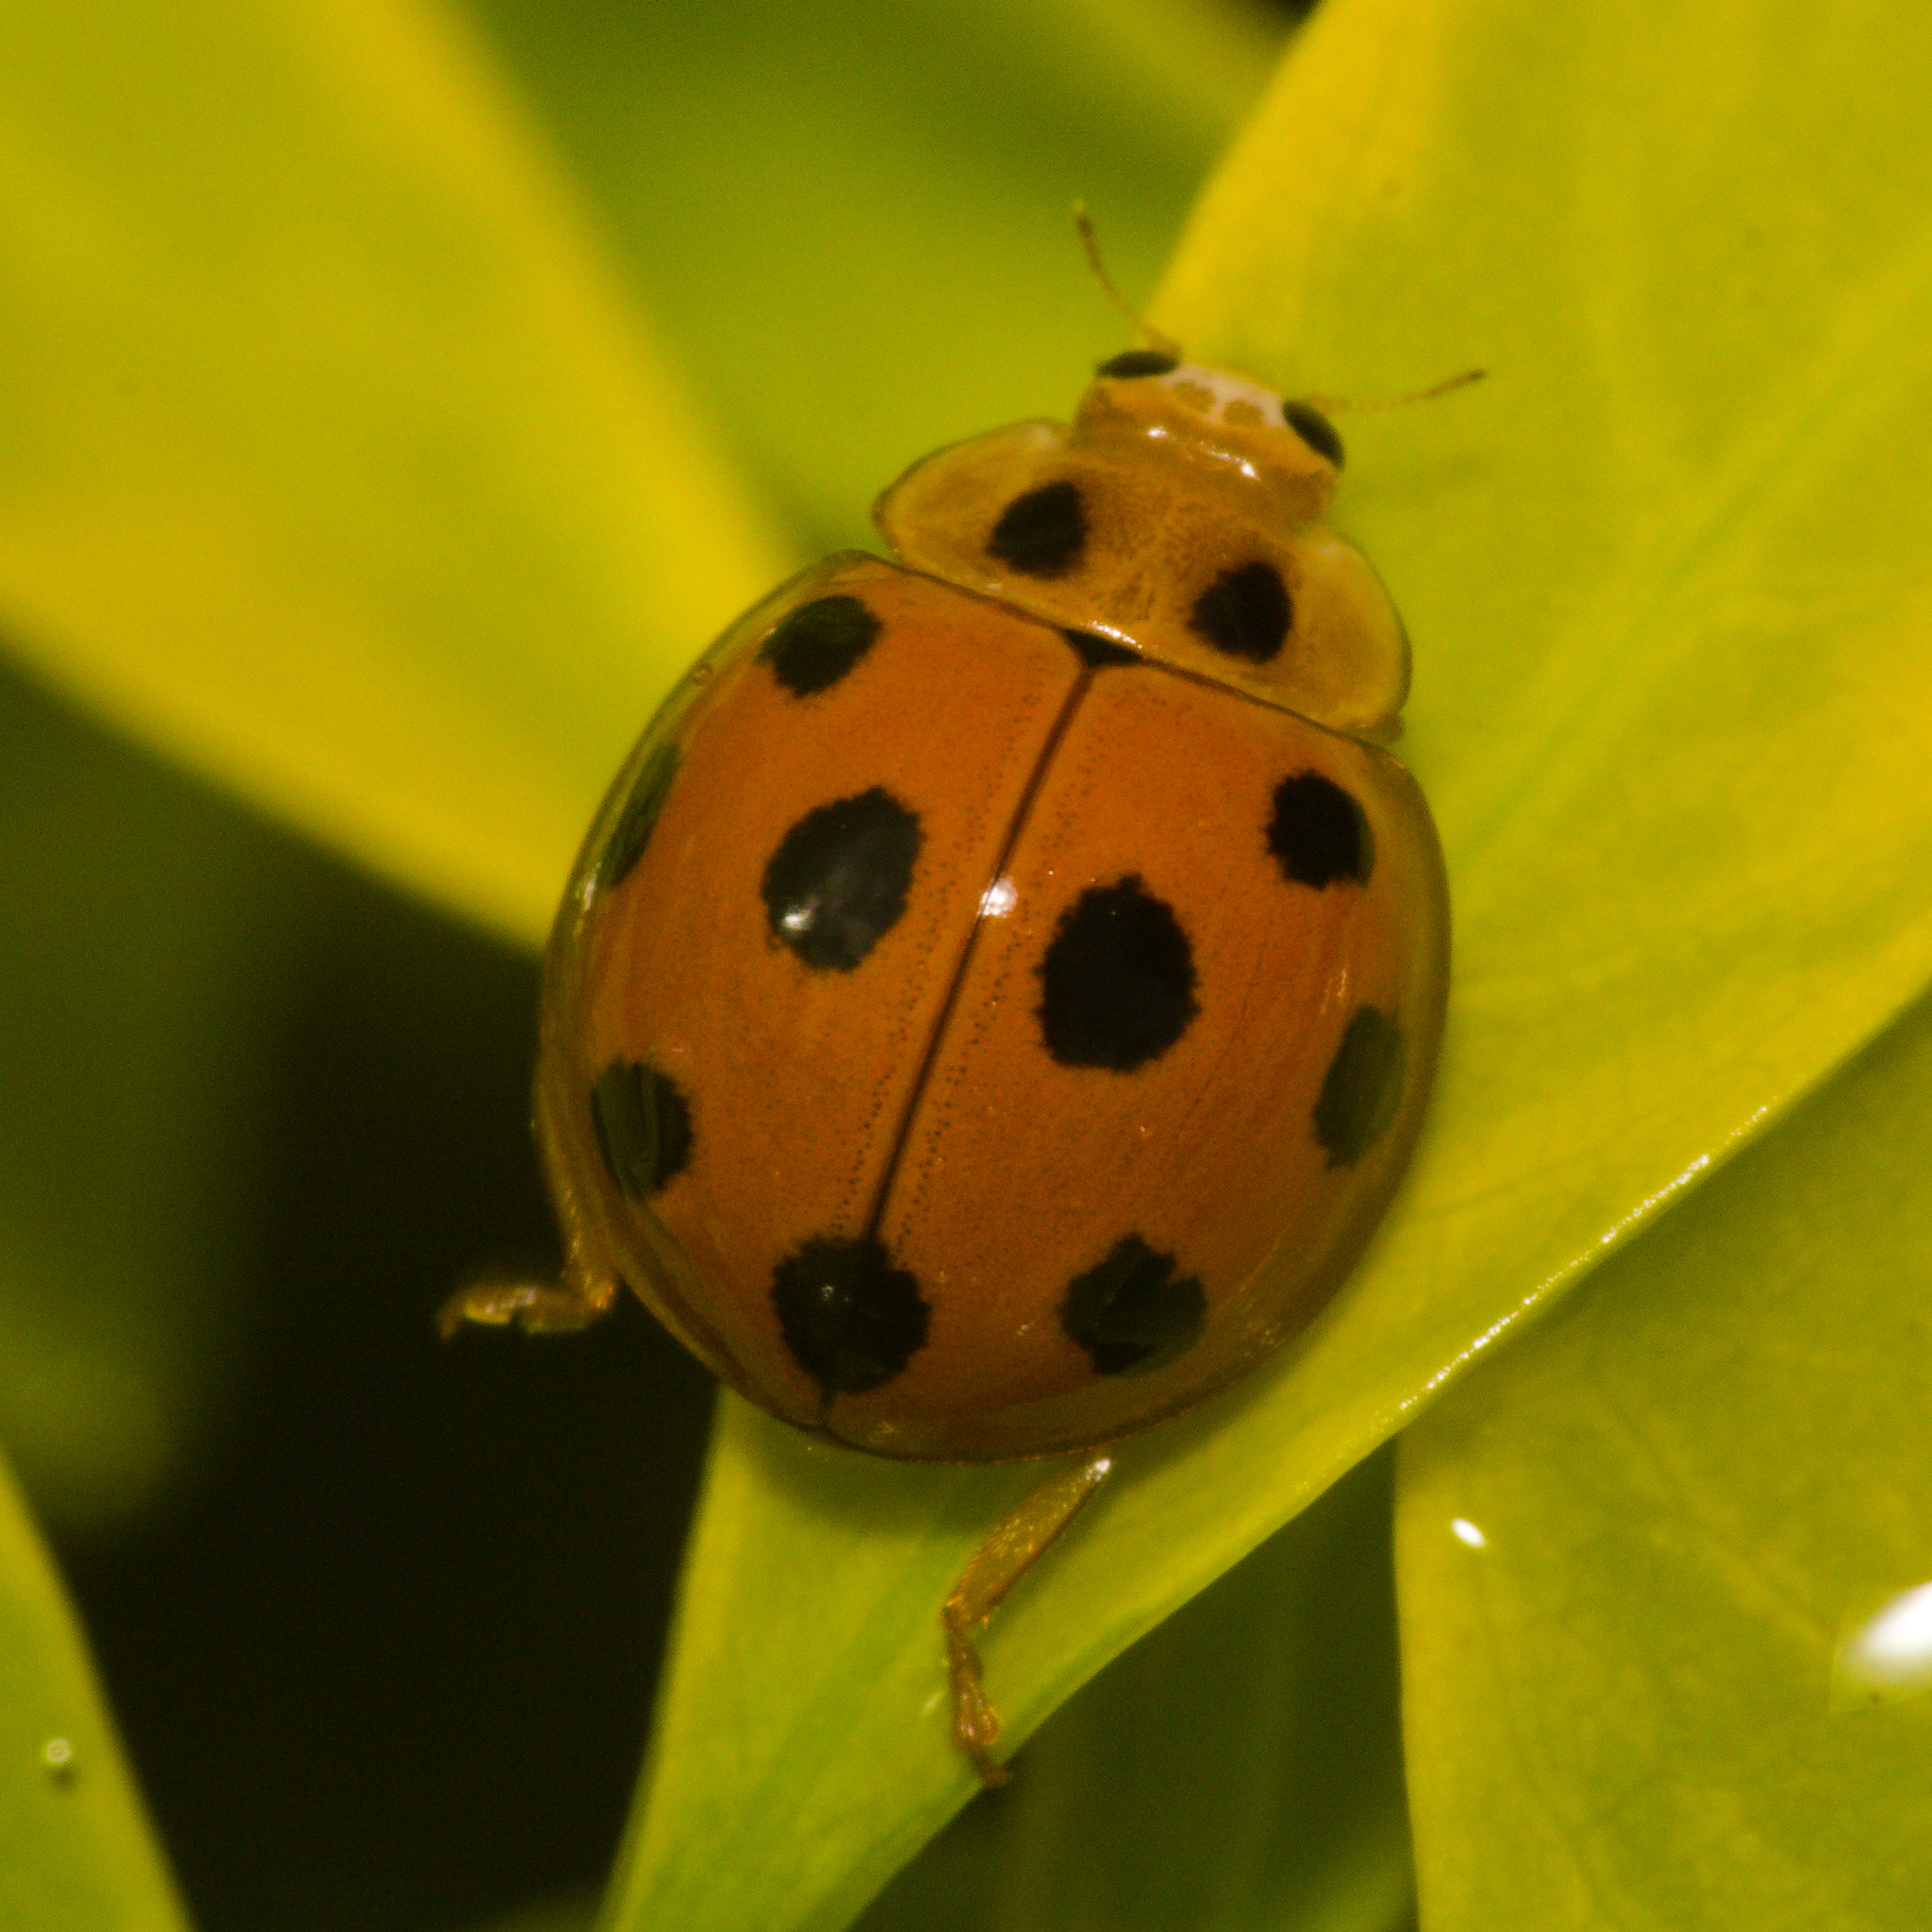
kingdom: Animalia
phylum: Arthropoda
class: Insecta
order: Coleoptera
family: Coccinellidae
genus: Coelophora
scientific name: Coelophora inaequalis
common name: Common australian lady beetle
